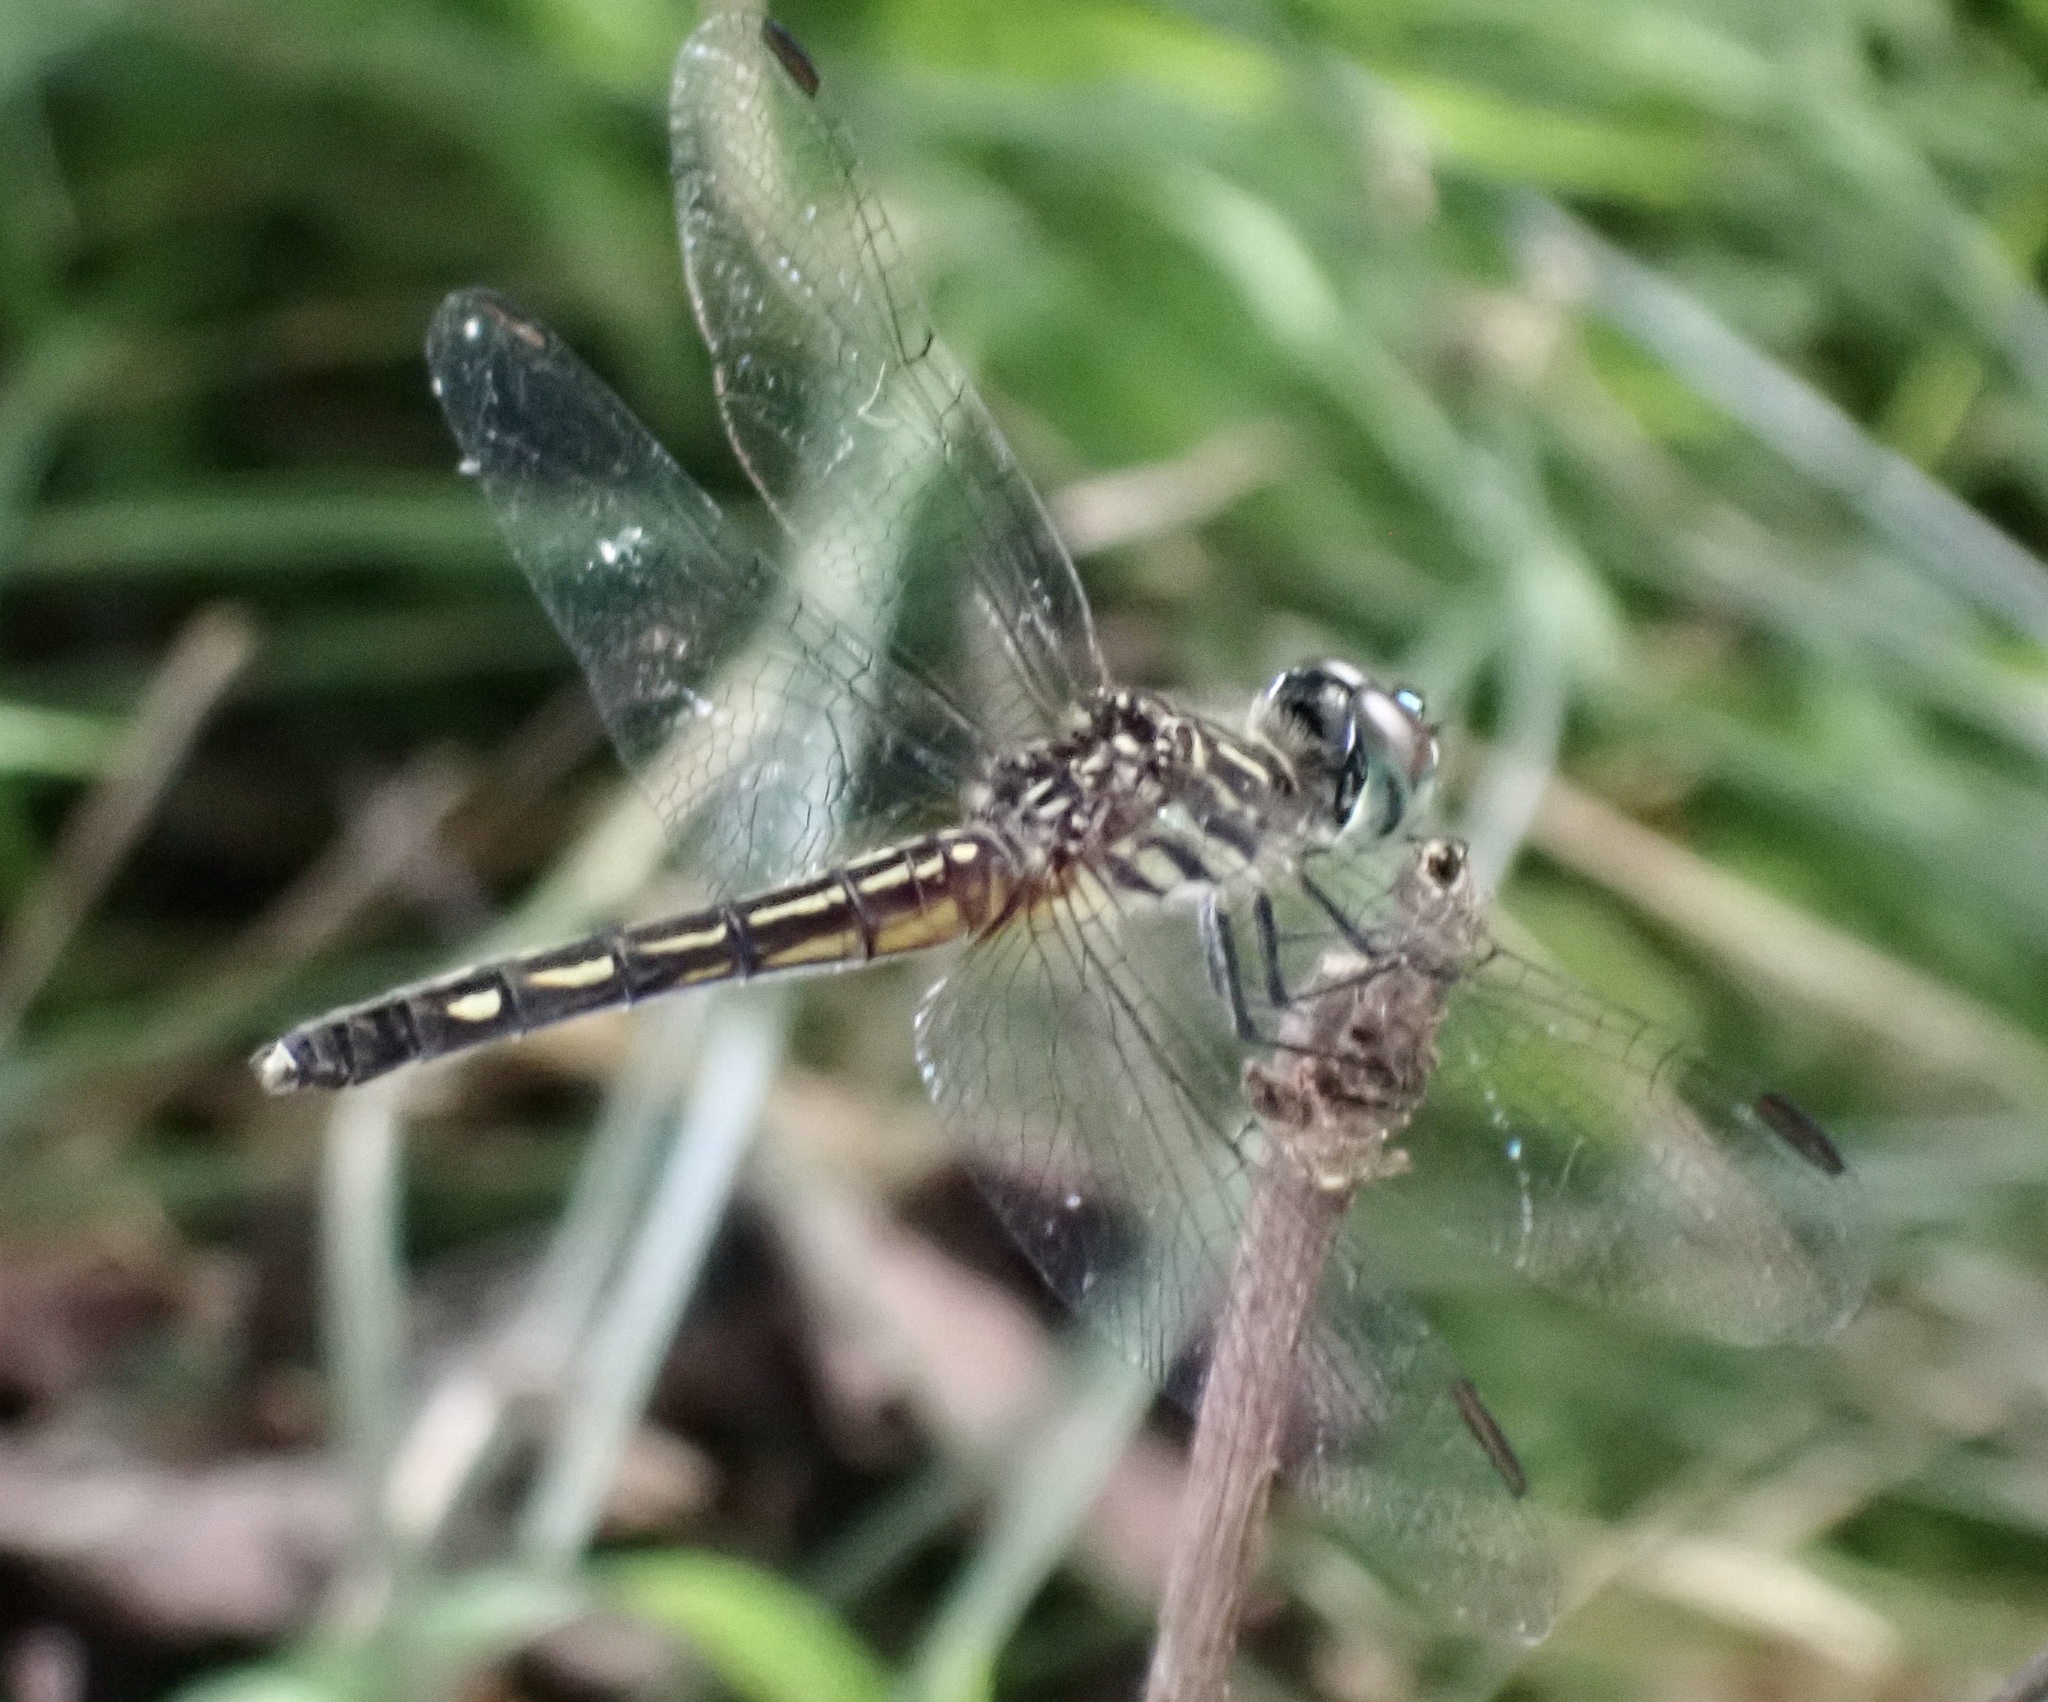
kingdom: Animalia
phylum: Arthropoda
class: Insecta
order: Odonata
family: Libellulidae
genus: Pachydiplax
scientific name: Pachydiplax longipennis
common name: Blue dasher
